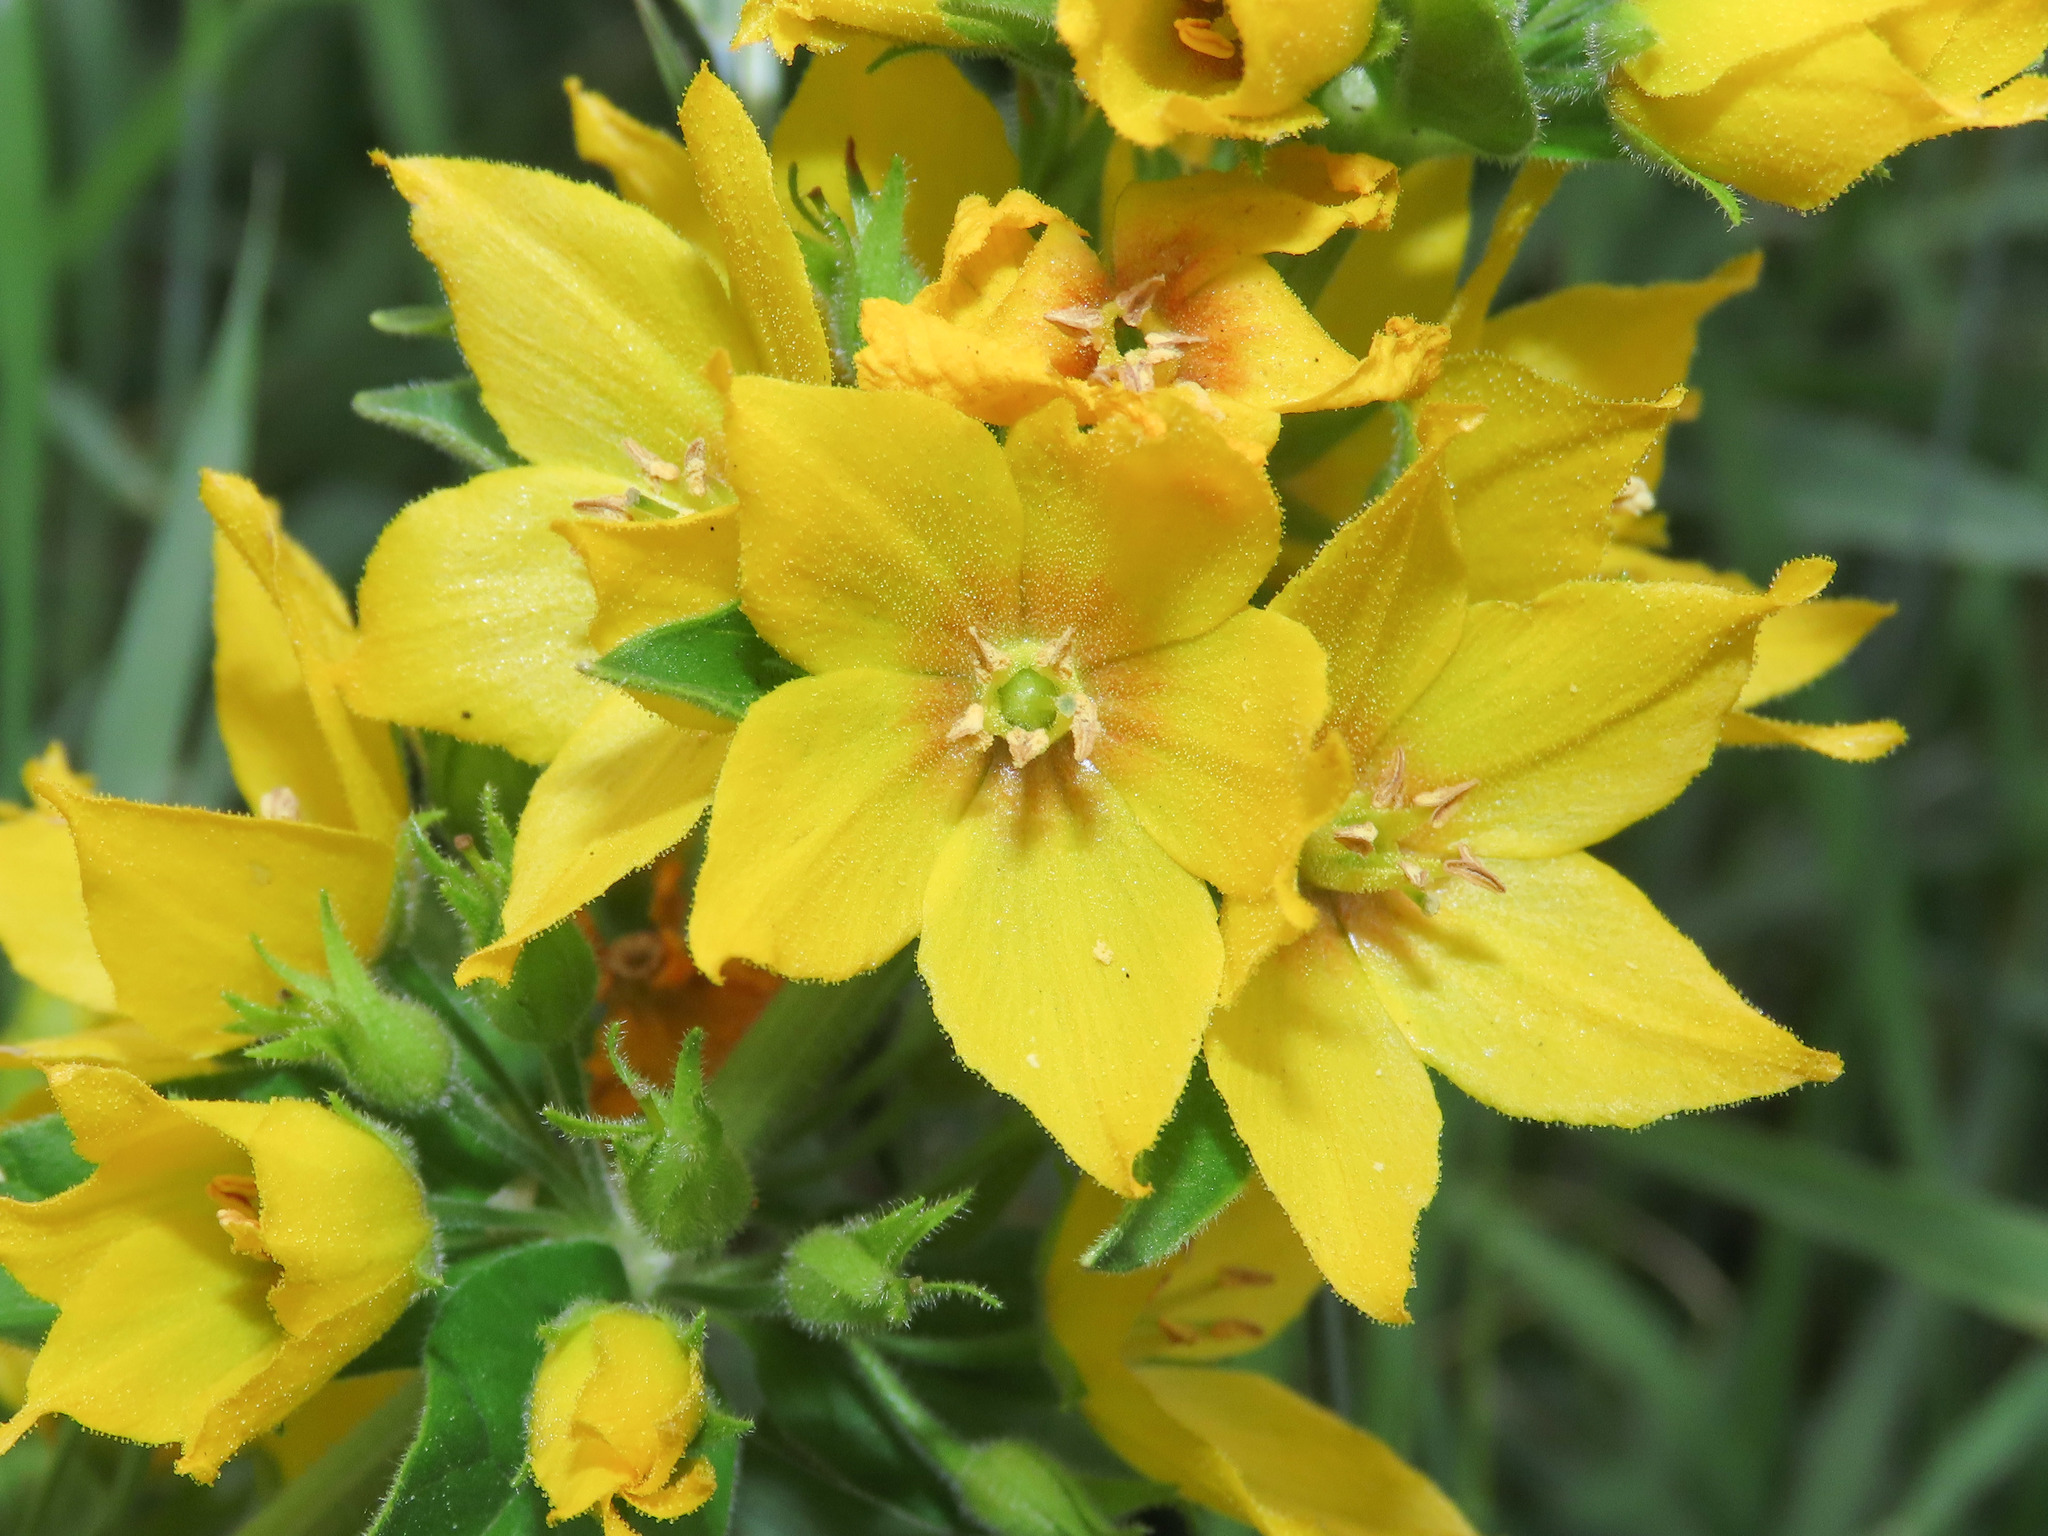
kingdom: Plantae
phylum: Tracheophyta
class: Magnoliopsida
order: Ericales
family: Primulaceae
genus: Lysimachia
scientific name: Lysimachia punctata
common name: Dotted loosestrife
